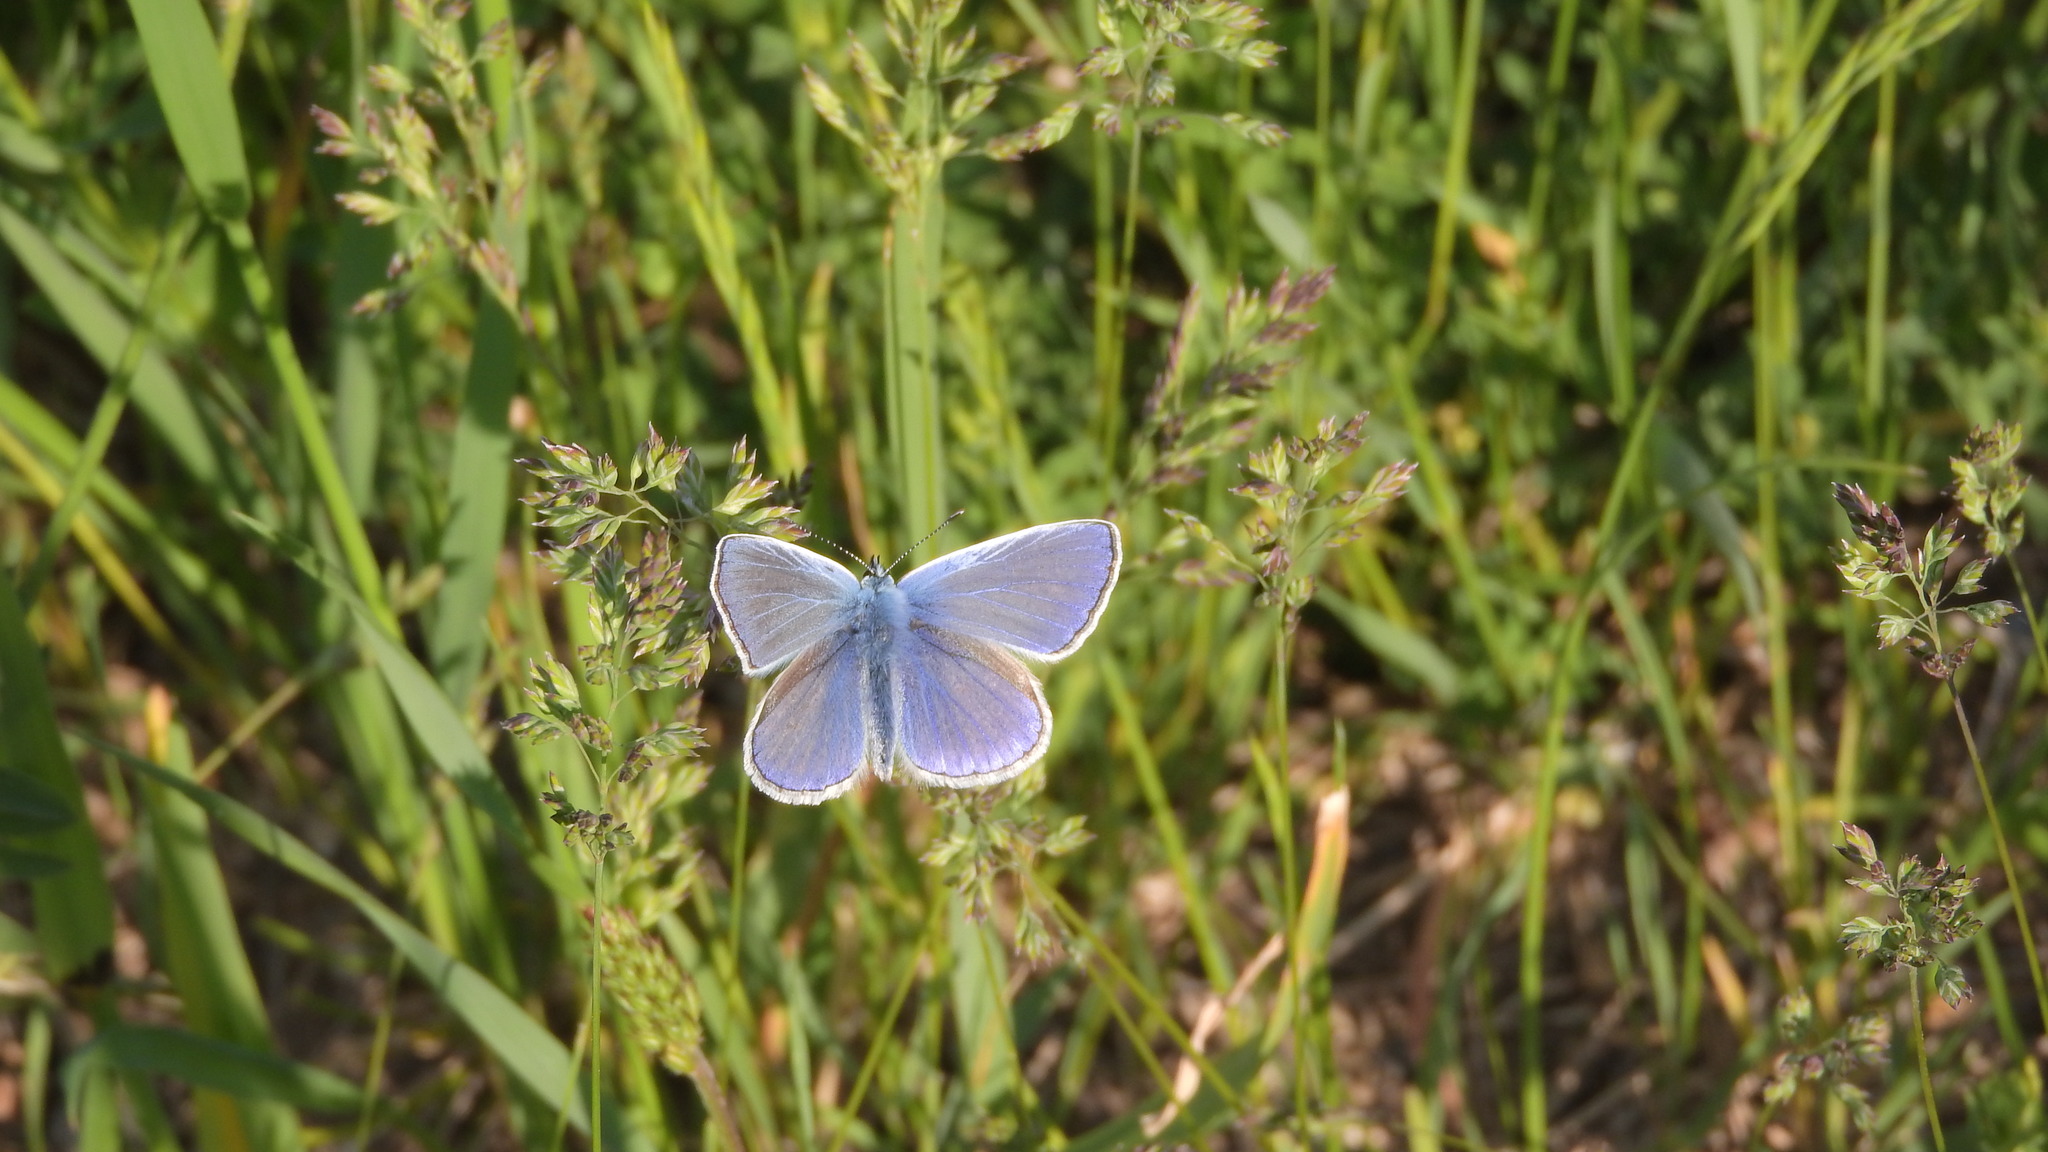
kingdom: Animalia
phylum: Arthropoda
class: Insecta
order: Lepidoptera
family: Lycaenidae
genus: Polyommatus
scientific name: Polyommatus icarus
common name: Common blue
